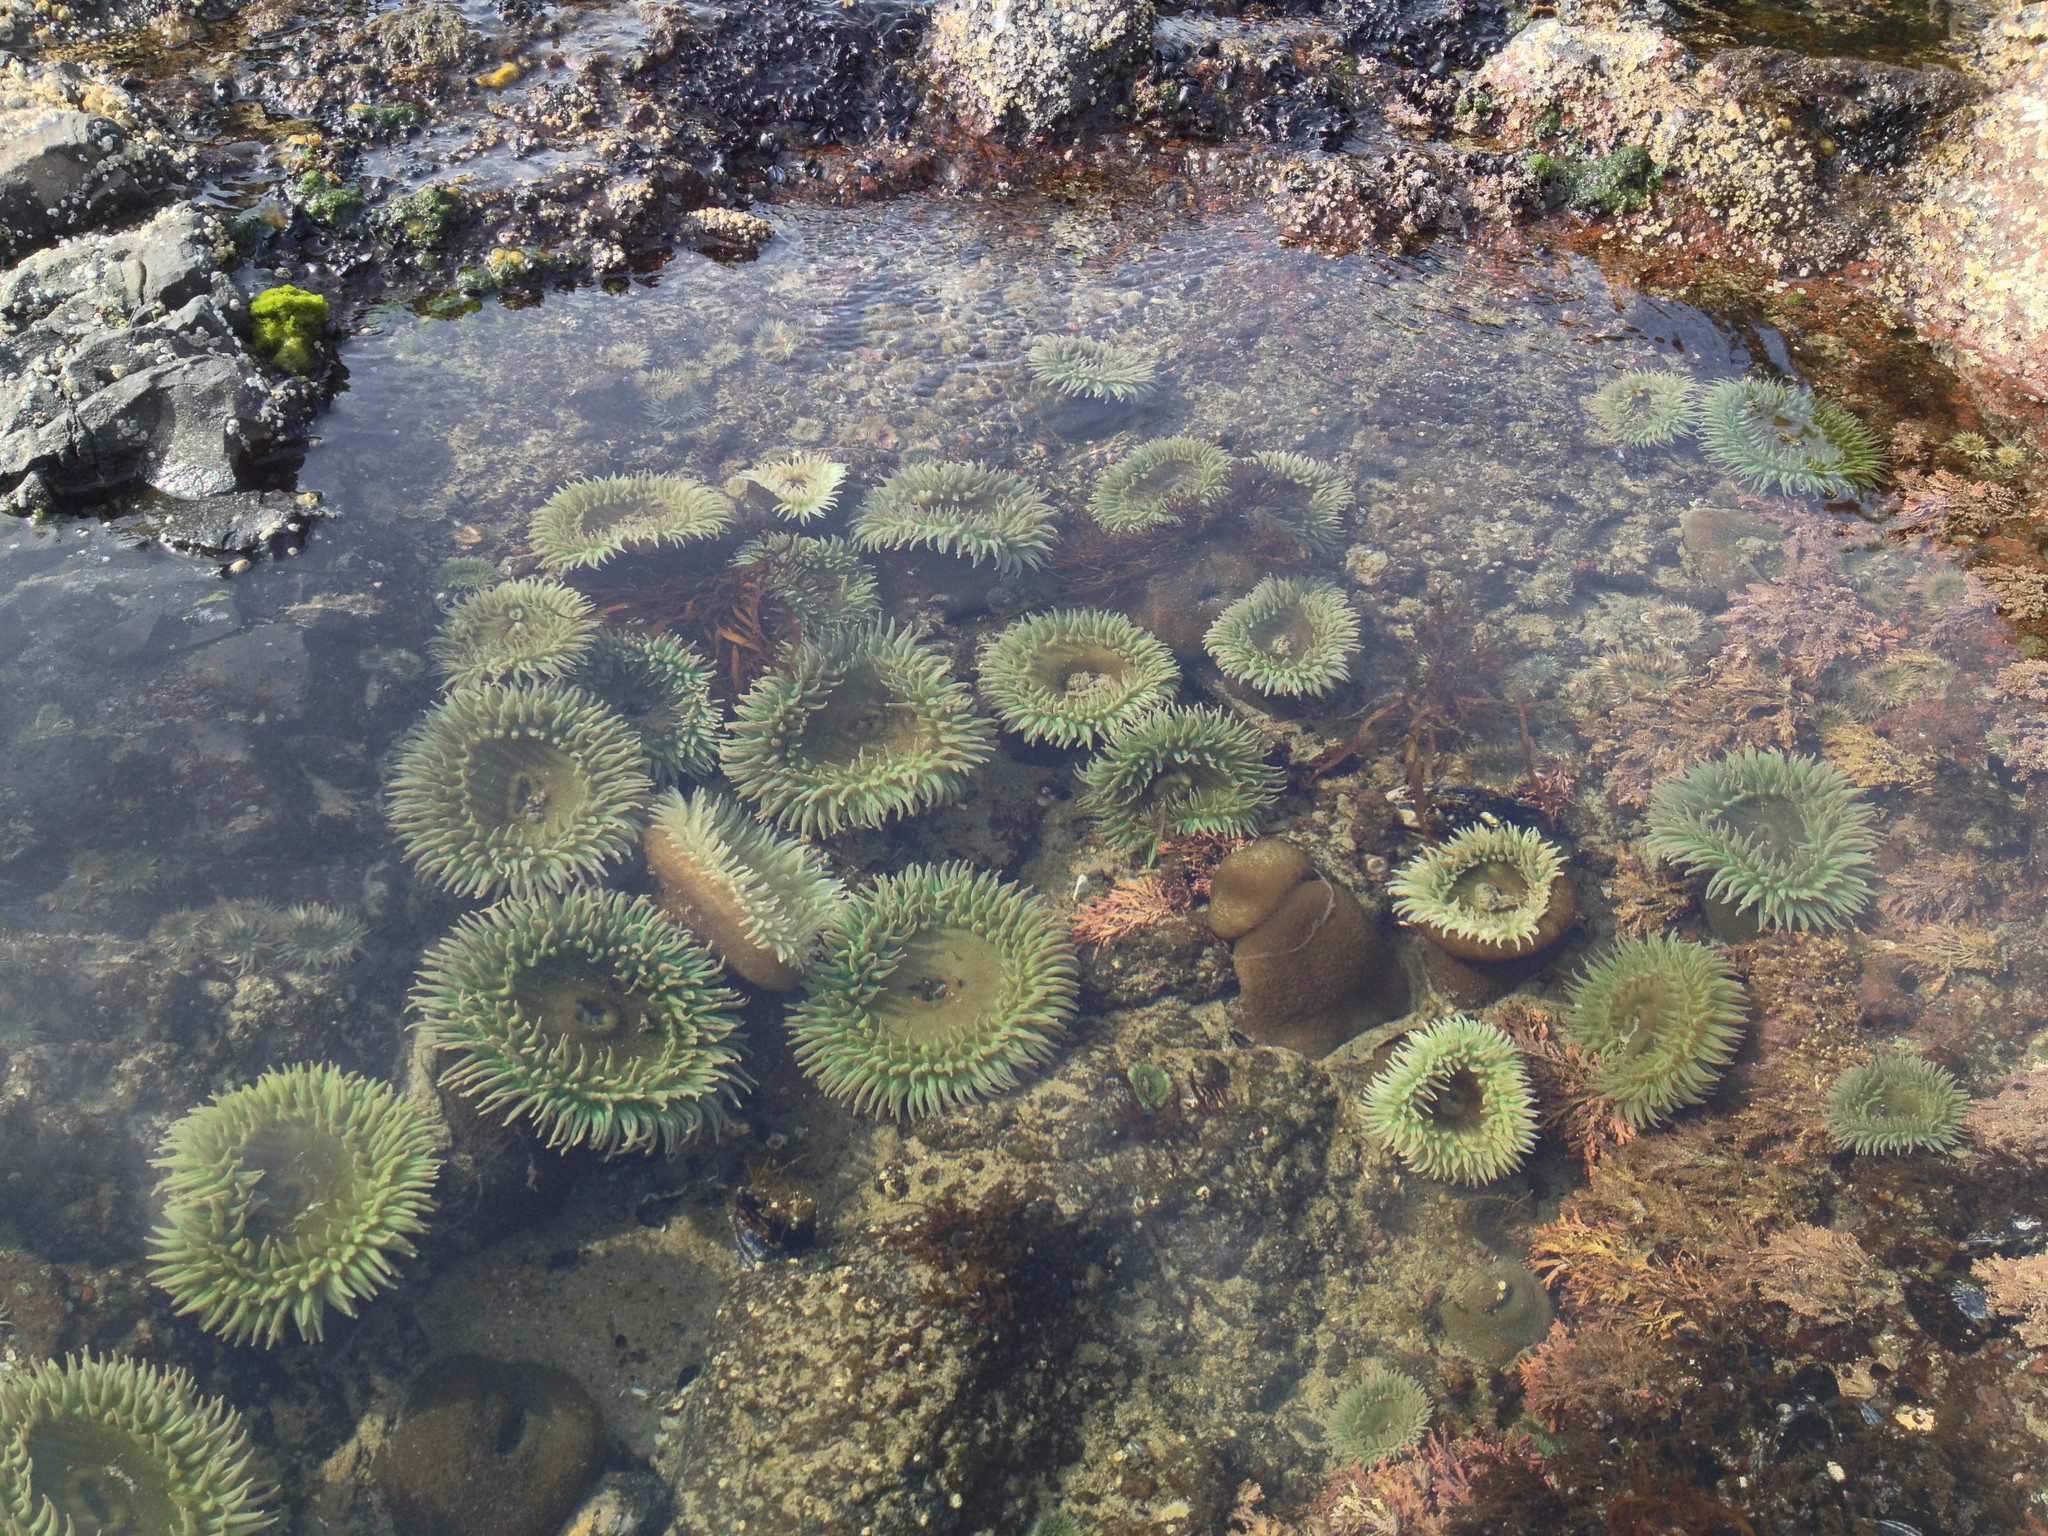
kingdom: Animalia
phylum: Cnidaria
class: Anthozoa
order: Actiniaria
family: Actiniidae
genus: Anthopleura
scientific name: Anthopleura xanthogrammica
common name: Giant green anemone
